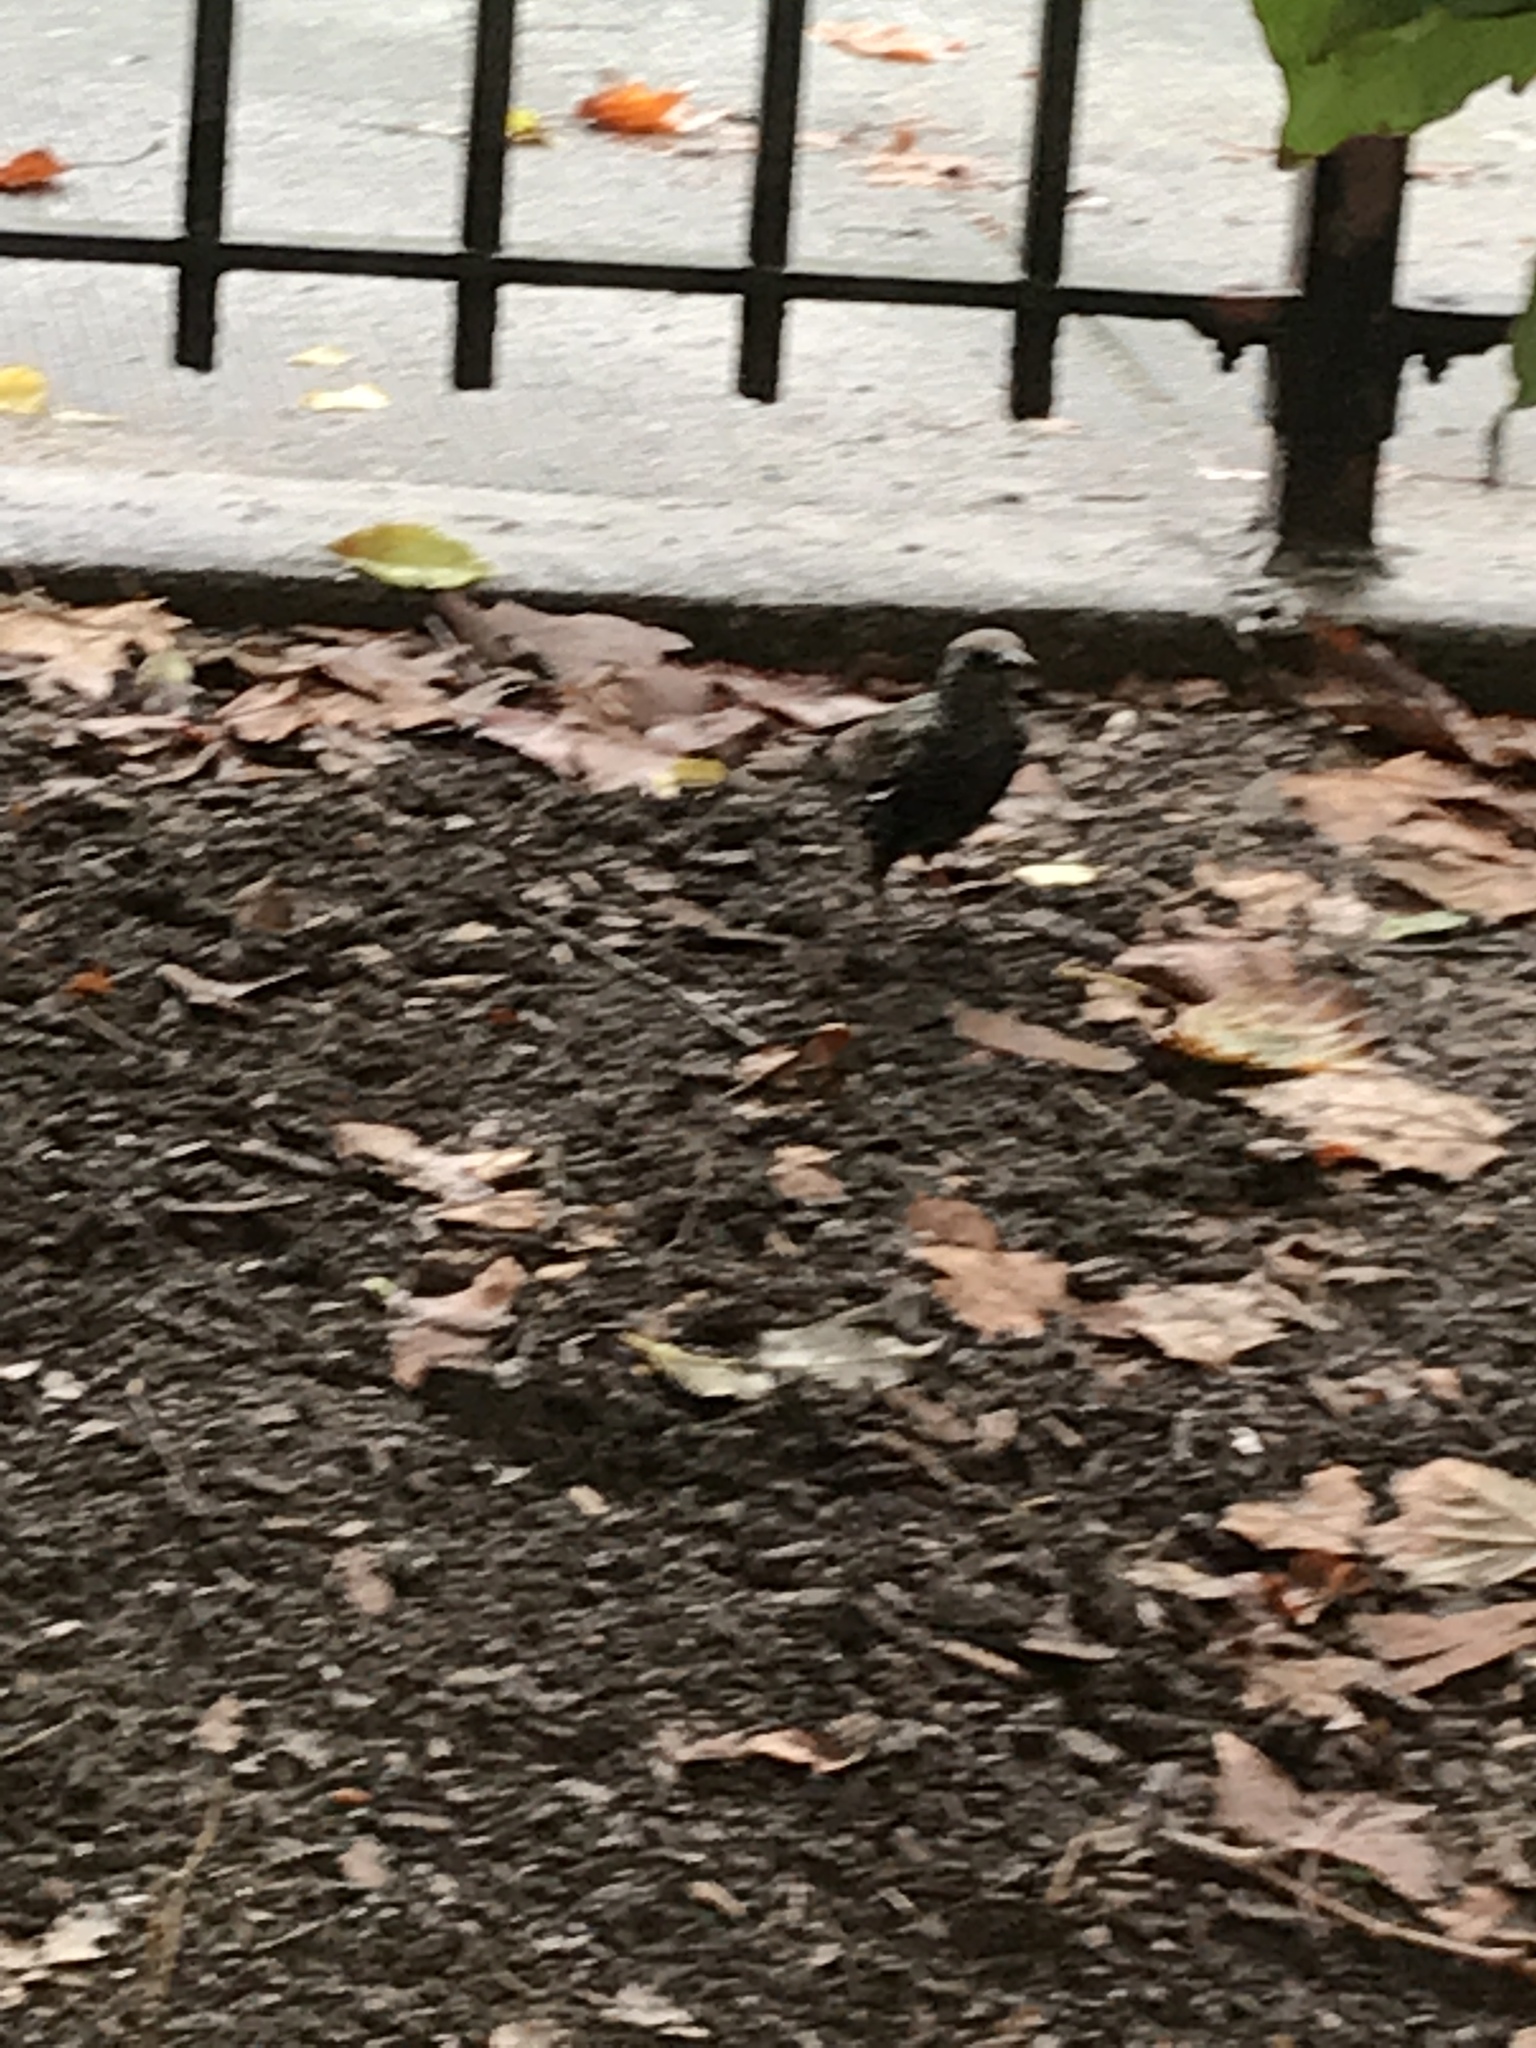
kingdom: Animalia
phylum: Chordata
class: Aves
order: Passeriformes
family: Sturnidae
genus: Sturnus
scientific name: Sturnus vulgaris
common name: Common starling
